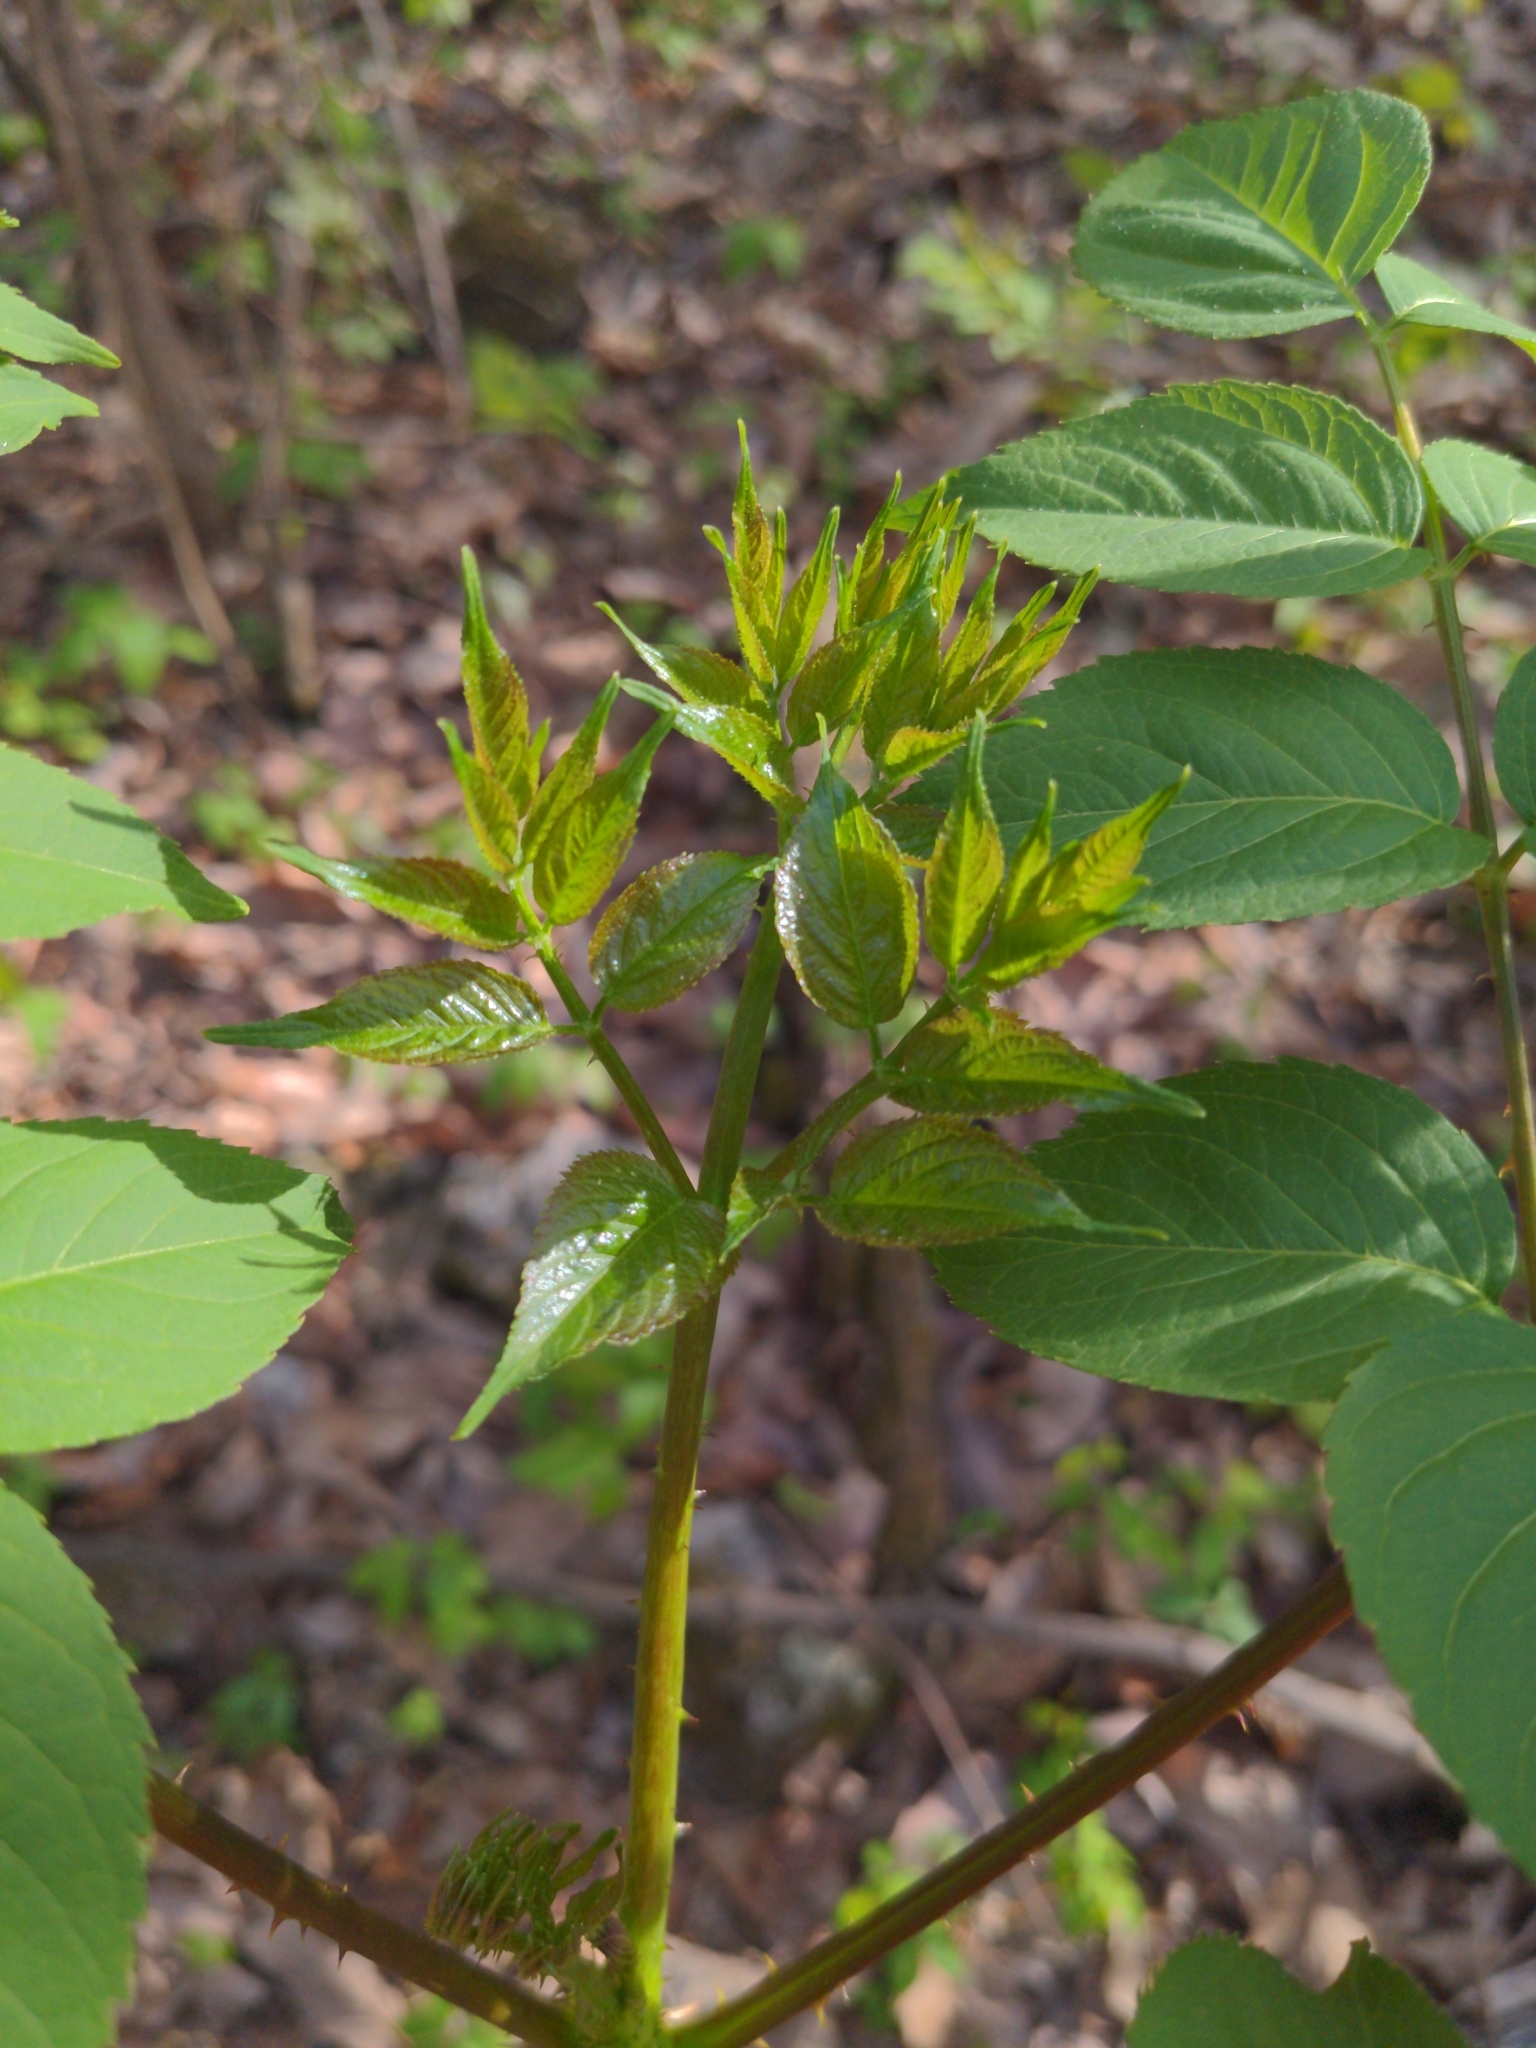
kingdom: Plantae
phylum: Tracheophyta
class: Magnoliopsida
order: Apiales
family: Araliaceae
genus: Aralia
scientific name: Aralia spinosa
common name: Hercules'-club
